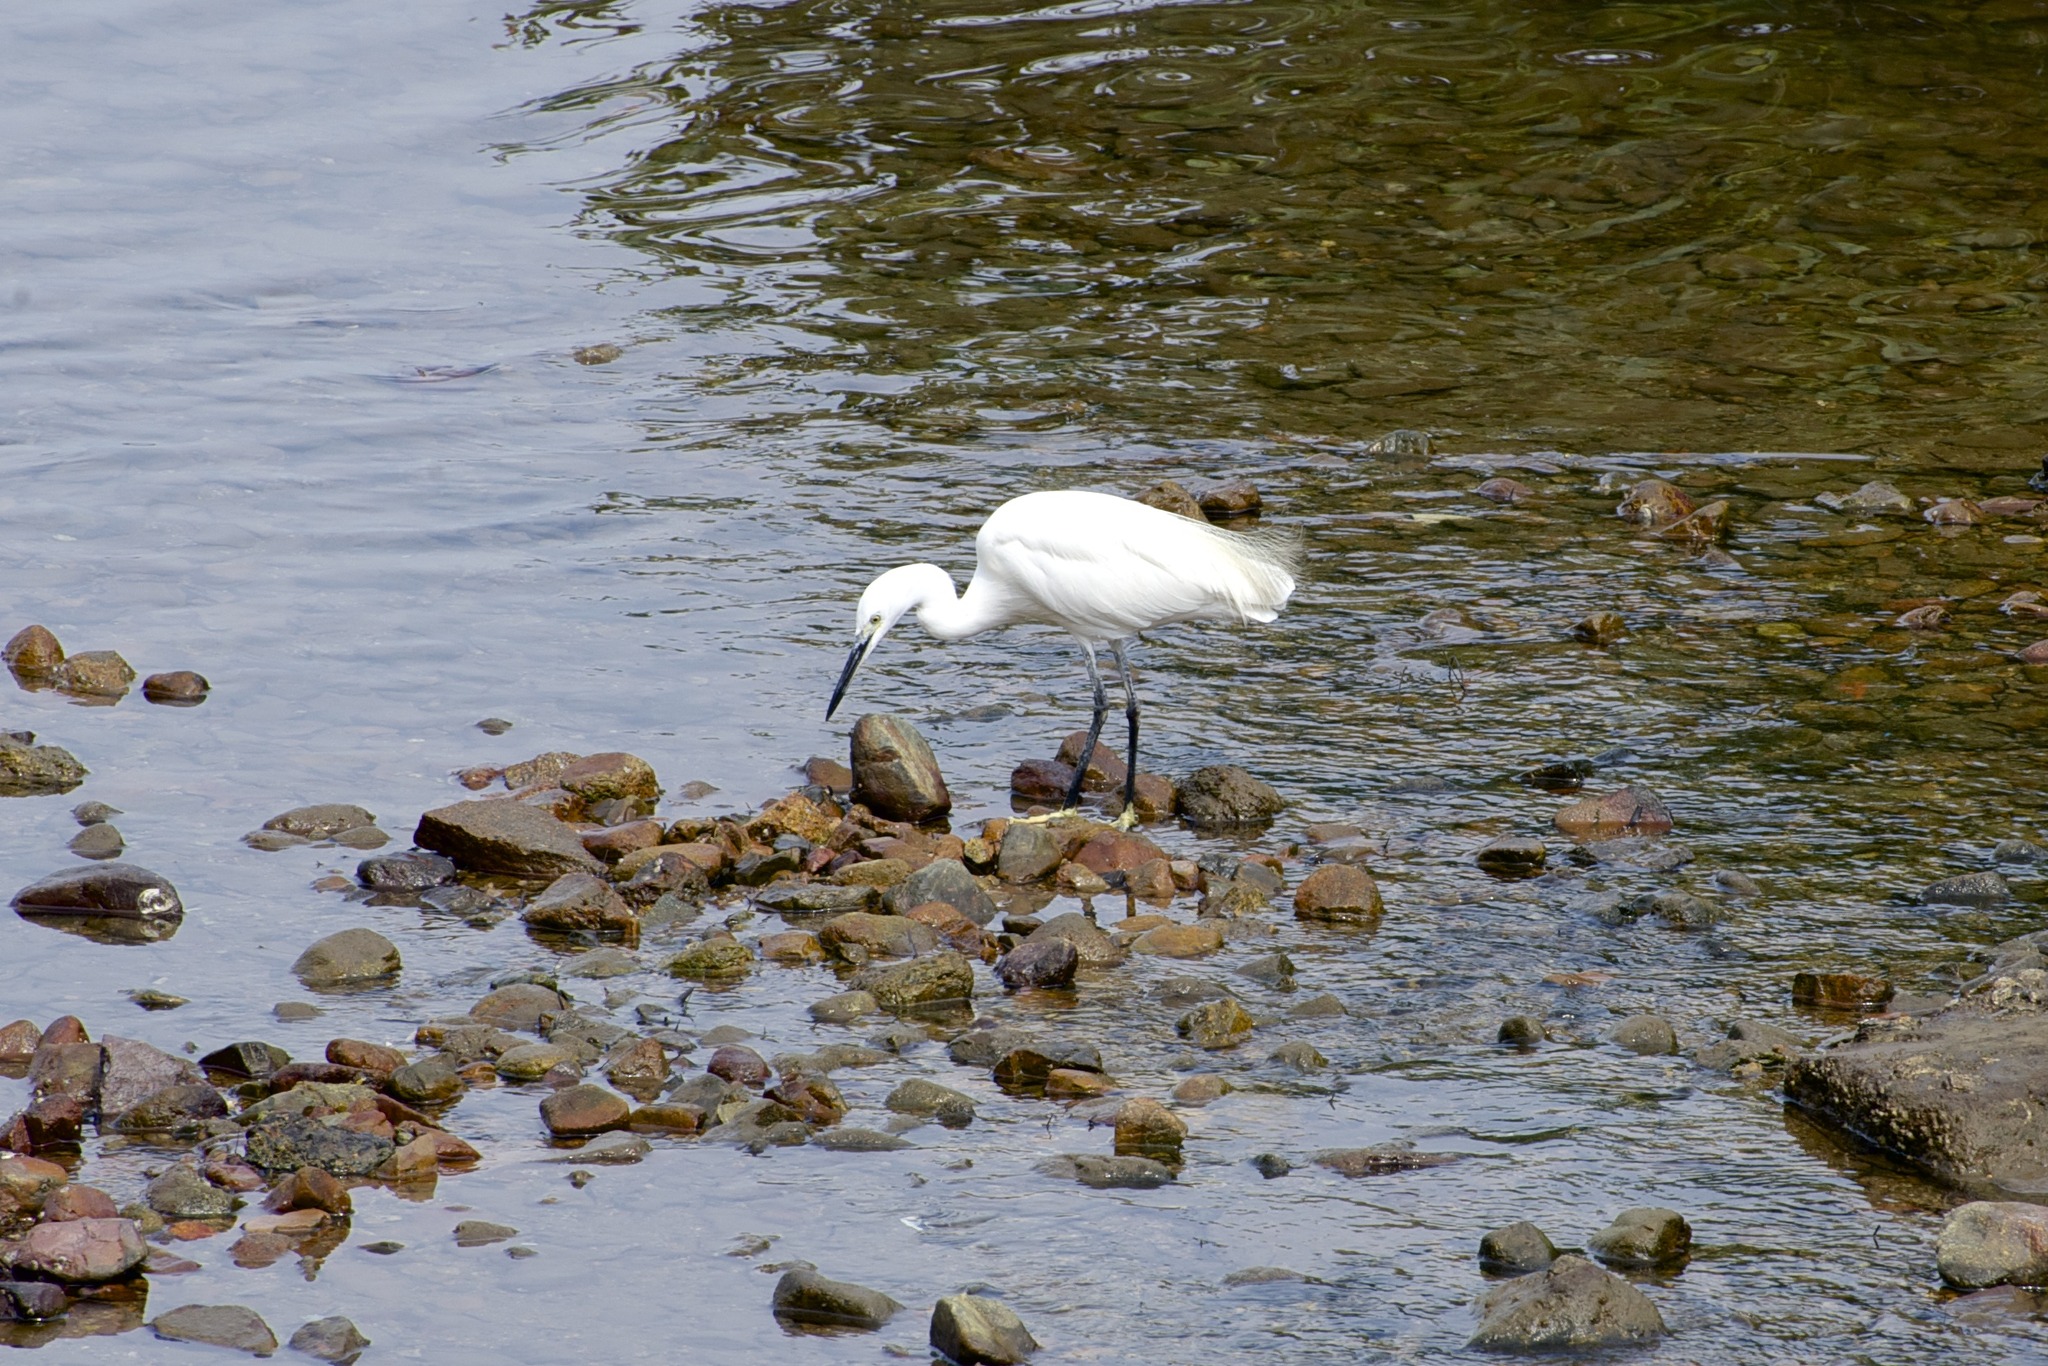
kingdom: Animalia
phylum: Chordata
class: Aves
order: Pelecaniformes
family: Ardeidae
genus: Egretta
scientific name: Egretta garzetta
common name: Little egret
